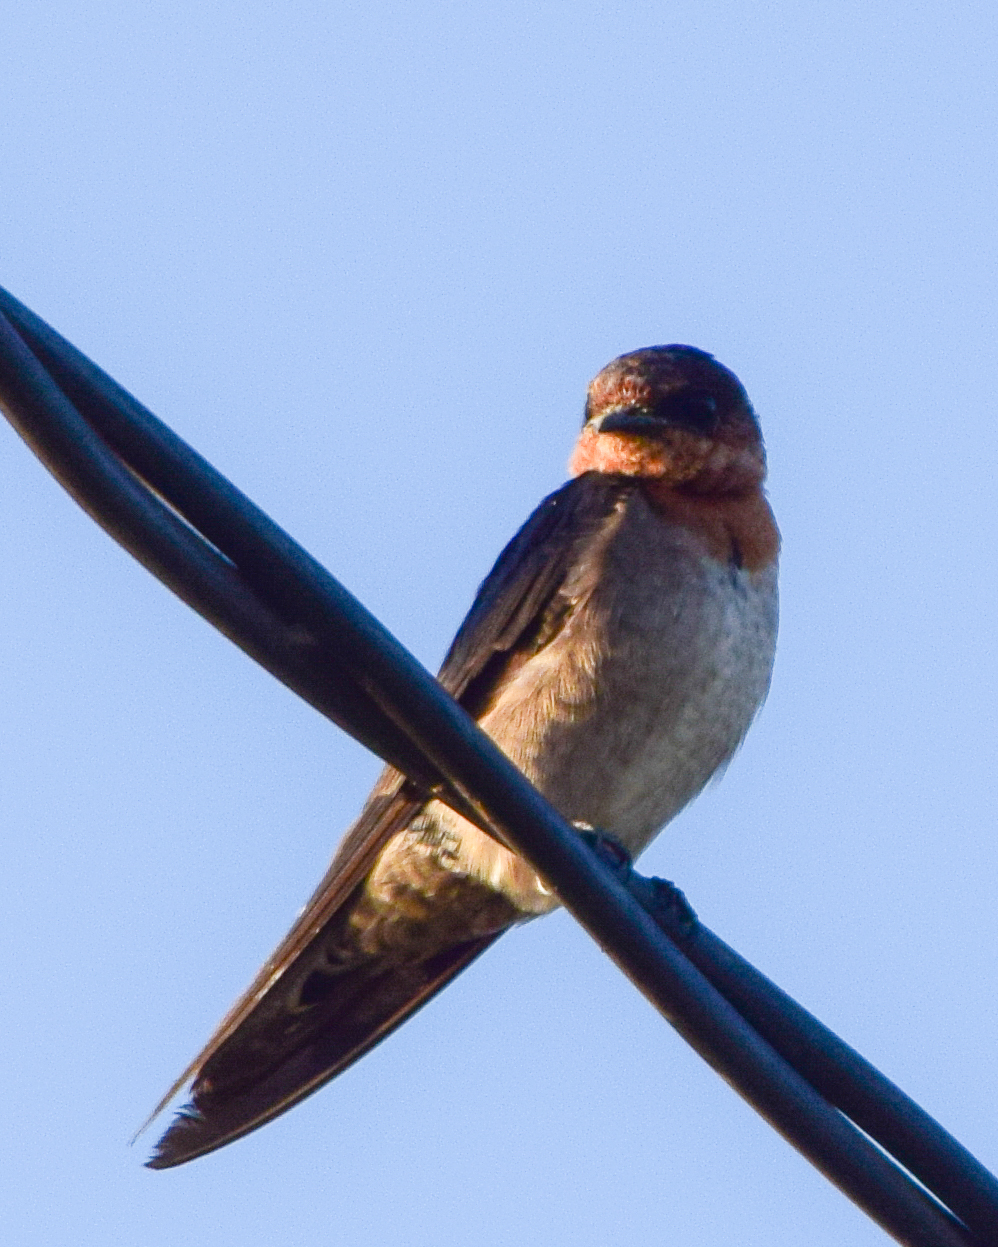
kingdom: Animalia
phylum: Chordata
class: Aves
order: Passeriformes
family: Hirundinidae
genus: Hirundo
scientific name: Hirundo tahitica
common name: Pacific swallow
